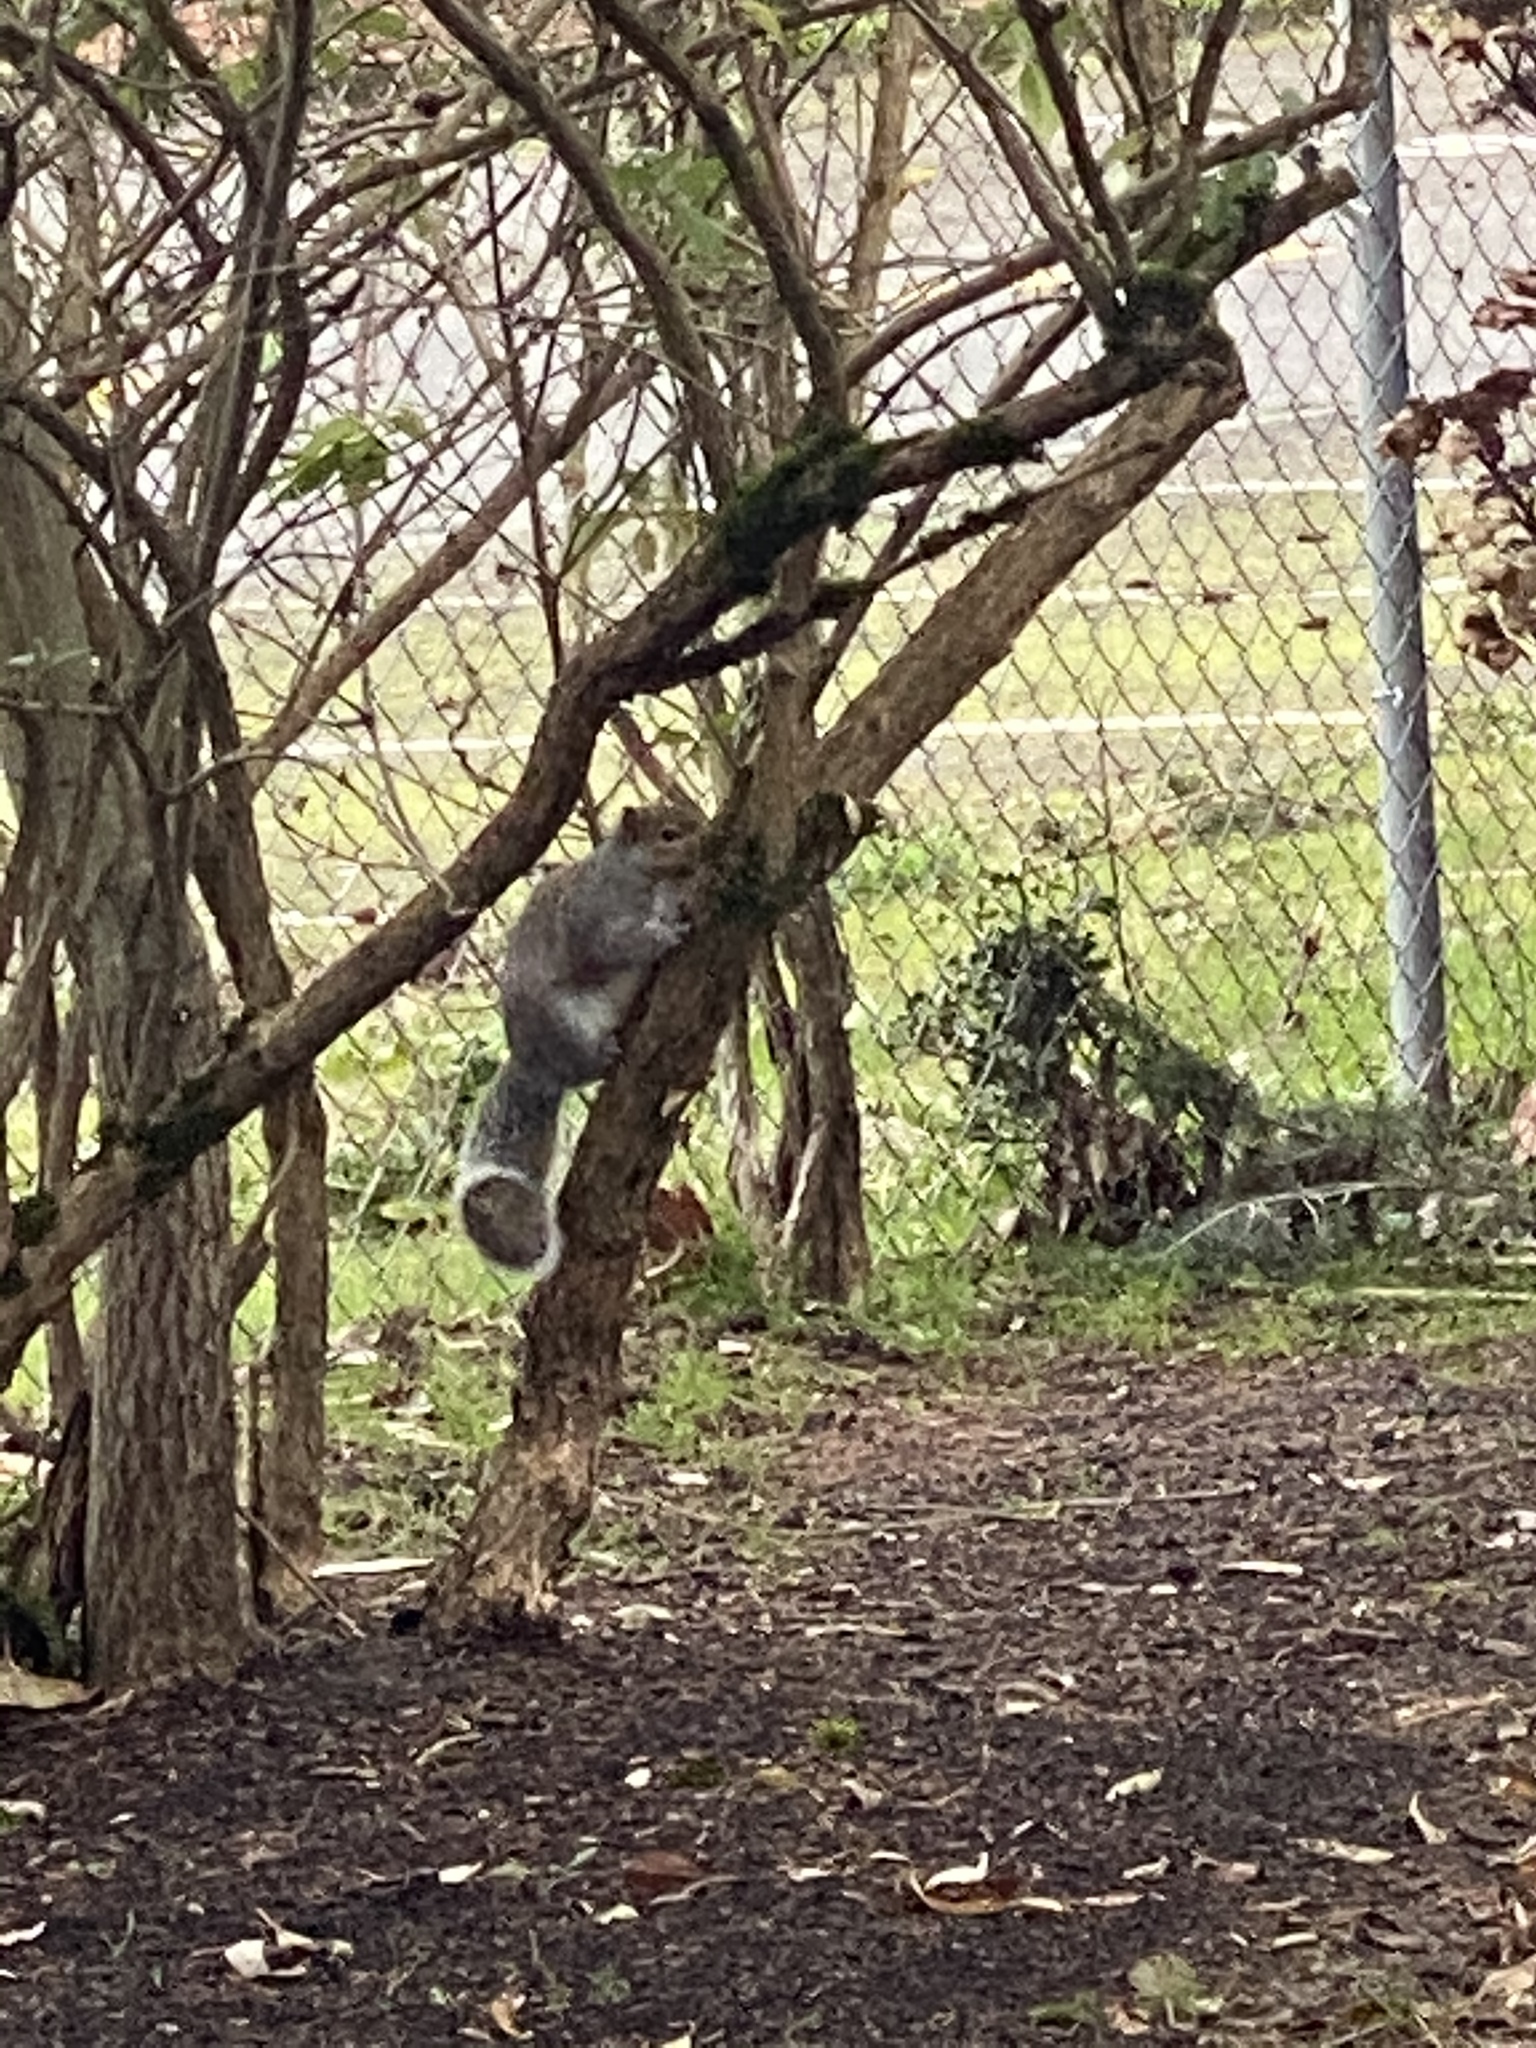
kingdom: Animalia
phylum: Chordata
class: Mammalia
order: Rodentia
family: Sciuridae
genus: Sciurus
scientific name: Sciurus carolinensis
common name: Eastern gray squirrel
